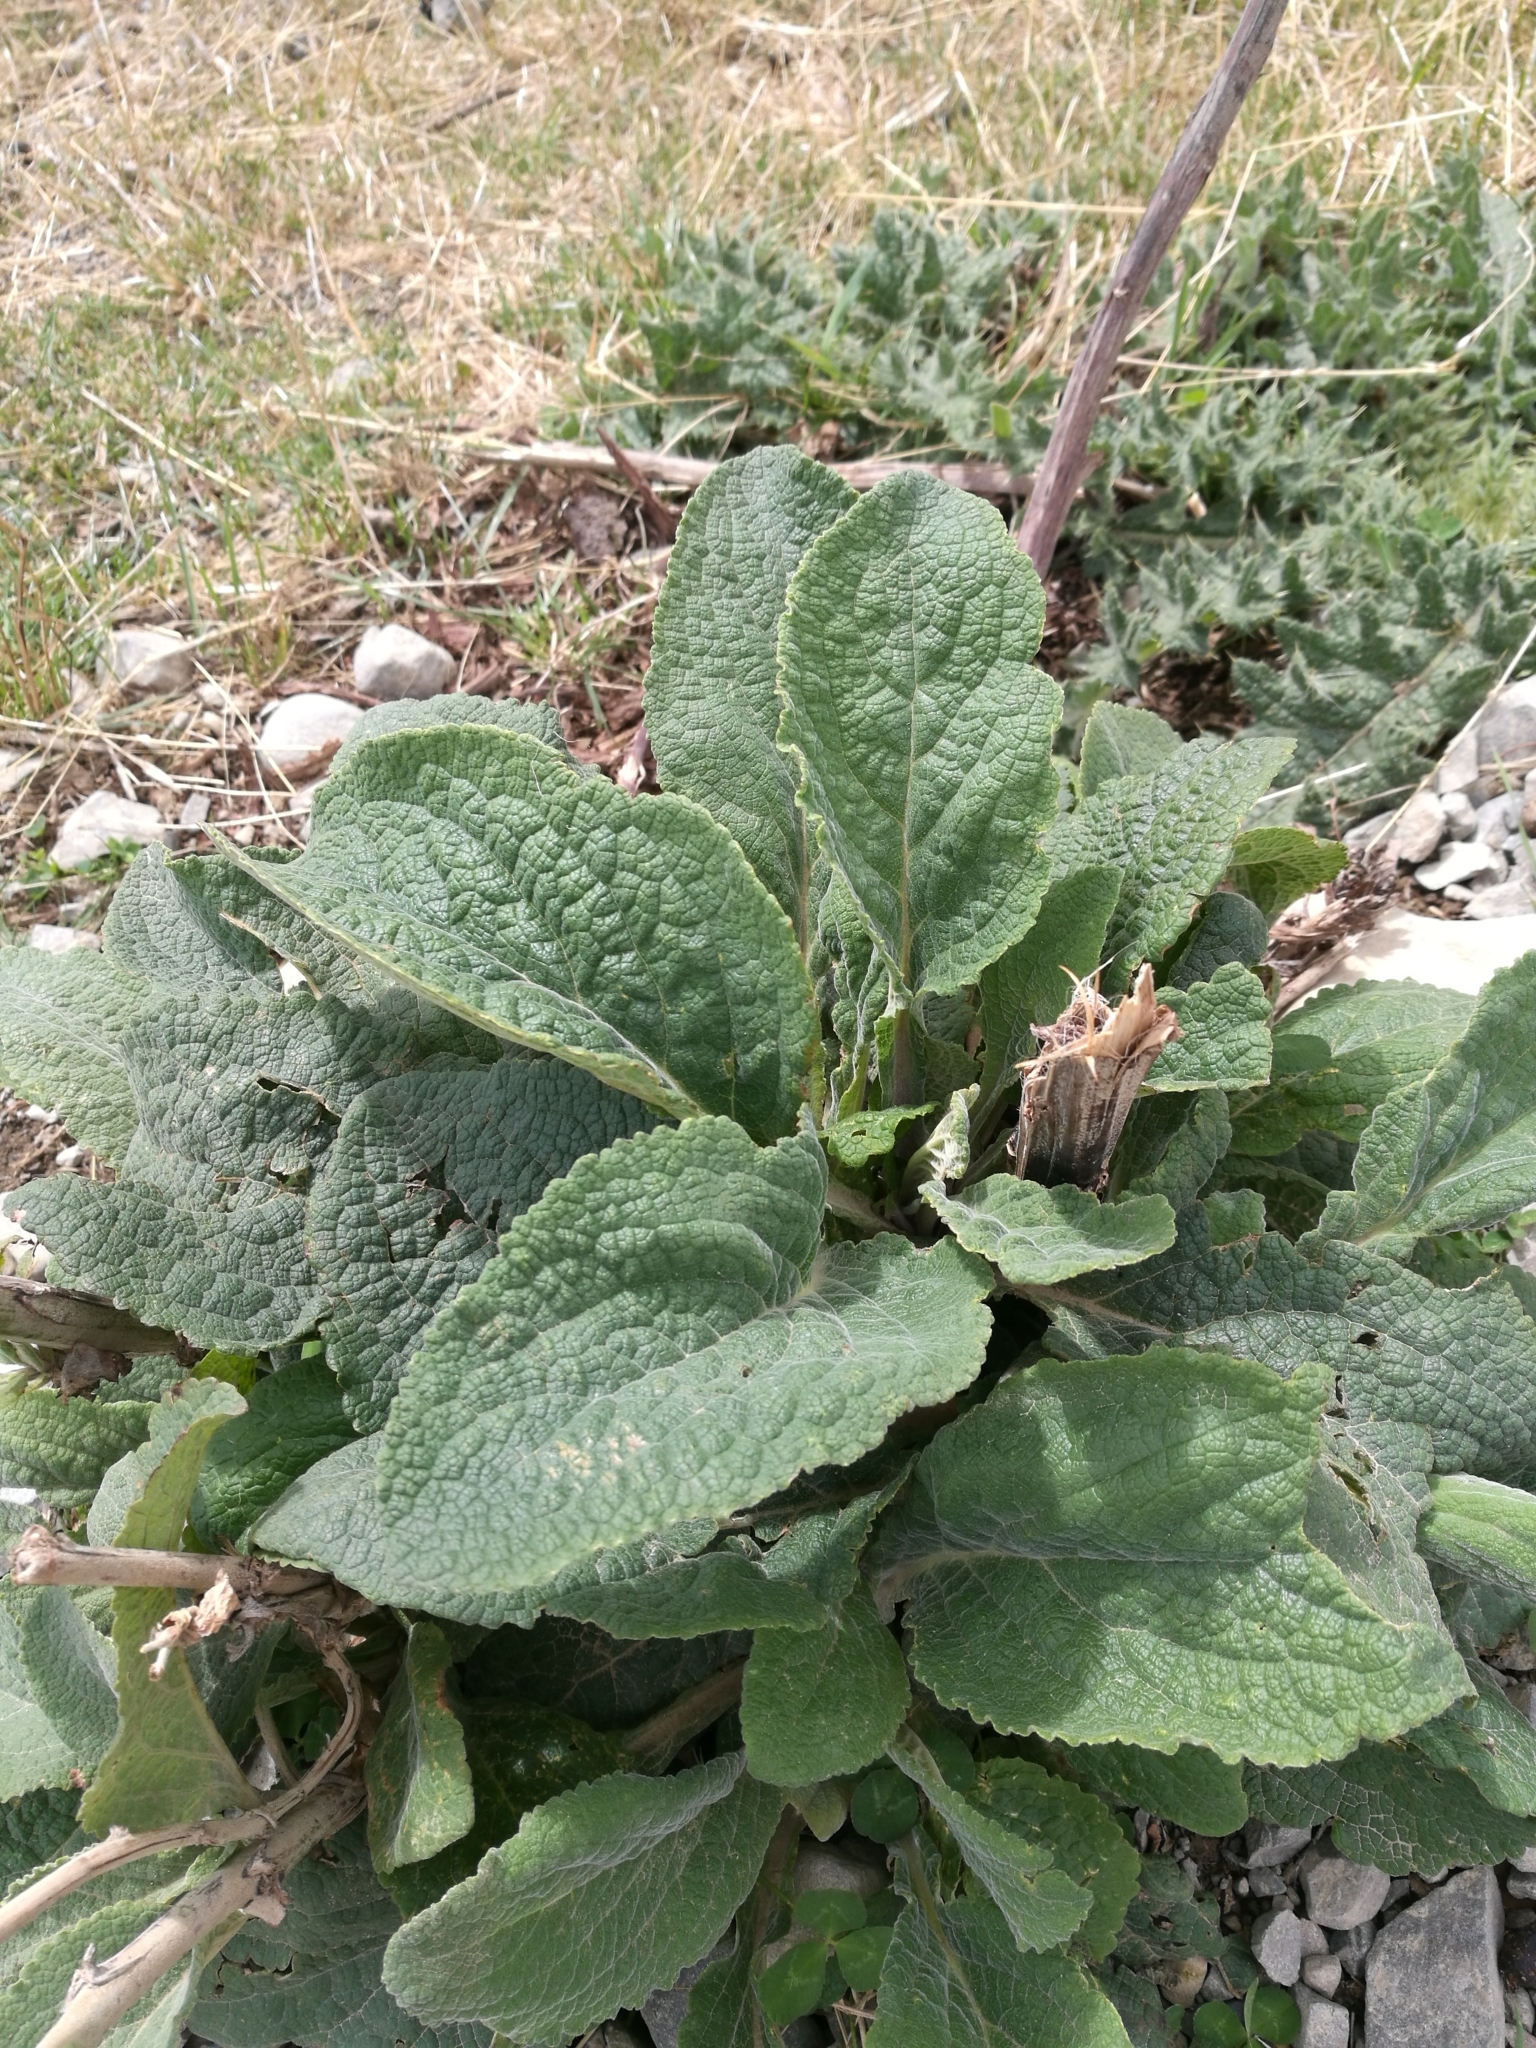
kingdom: Plantae
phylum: Tracheophyta
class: Magnoliopsida
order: Lamiales
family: Plantaginaceae
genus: Digitalis
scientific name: Digitalis purpurea
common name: Foxglove
